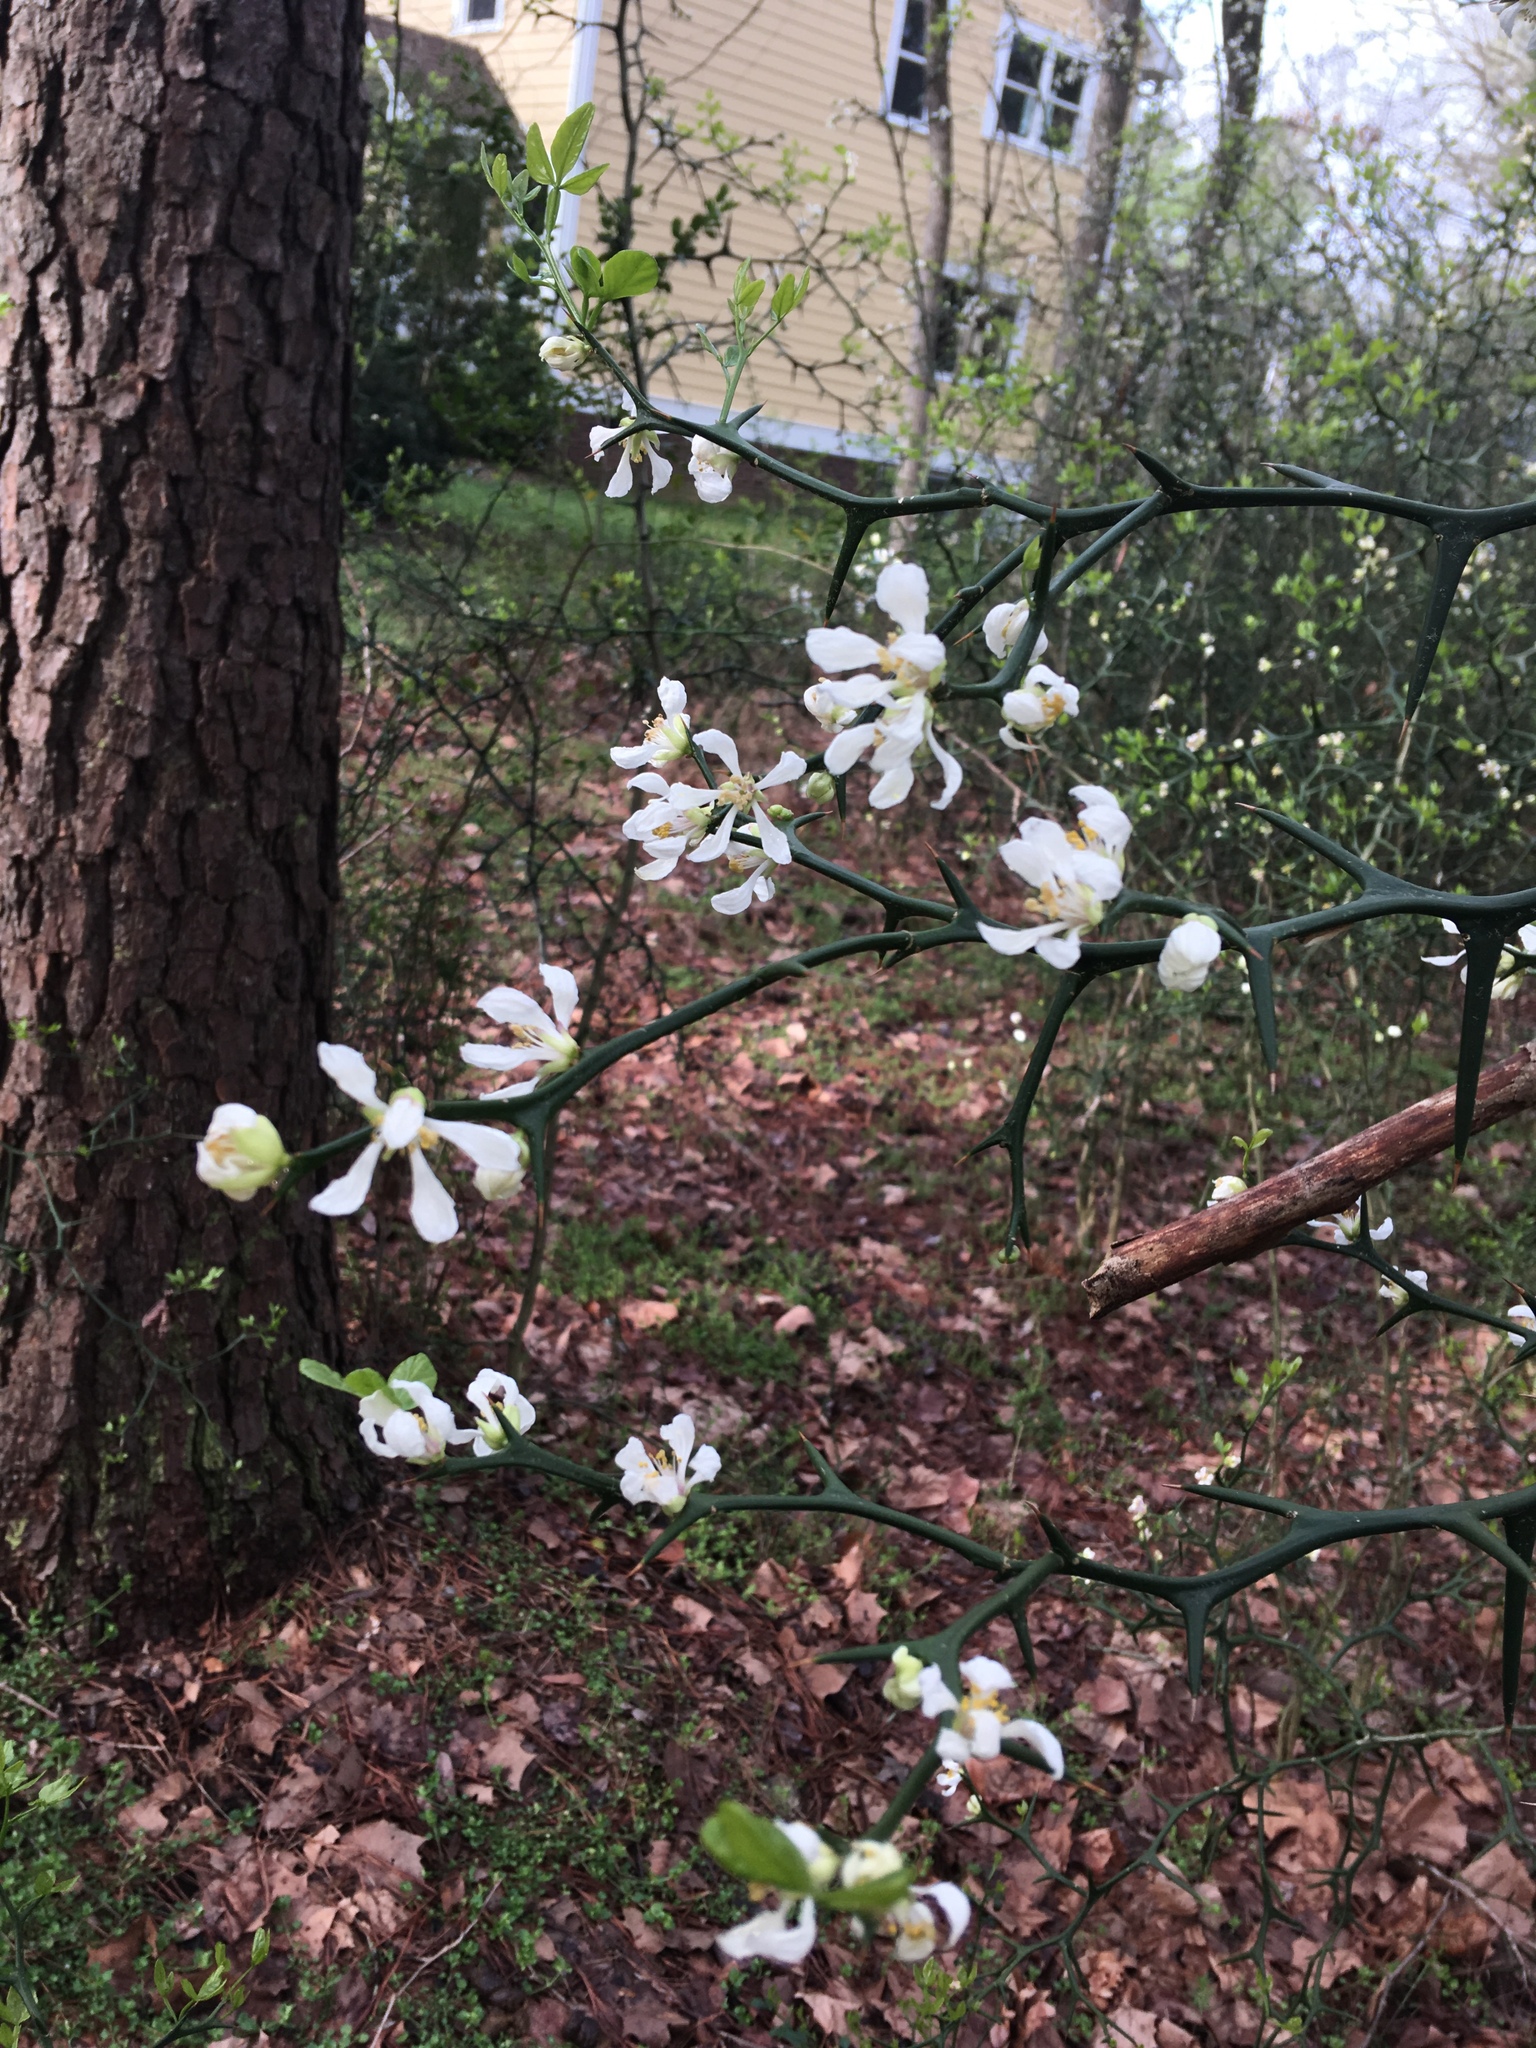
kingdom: Plantae
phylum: Tracheophyta
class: Magnoliopsida
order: Sapindales
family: Rutaceae
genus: Citrus
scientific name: Citrus trifoliata
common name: Japanese bitter-orange
